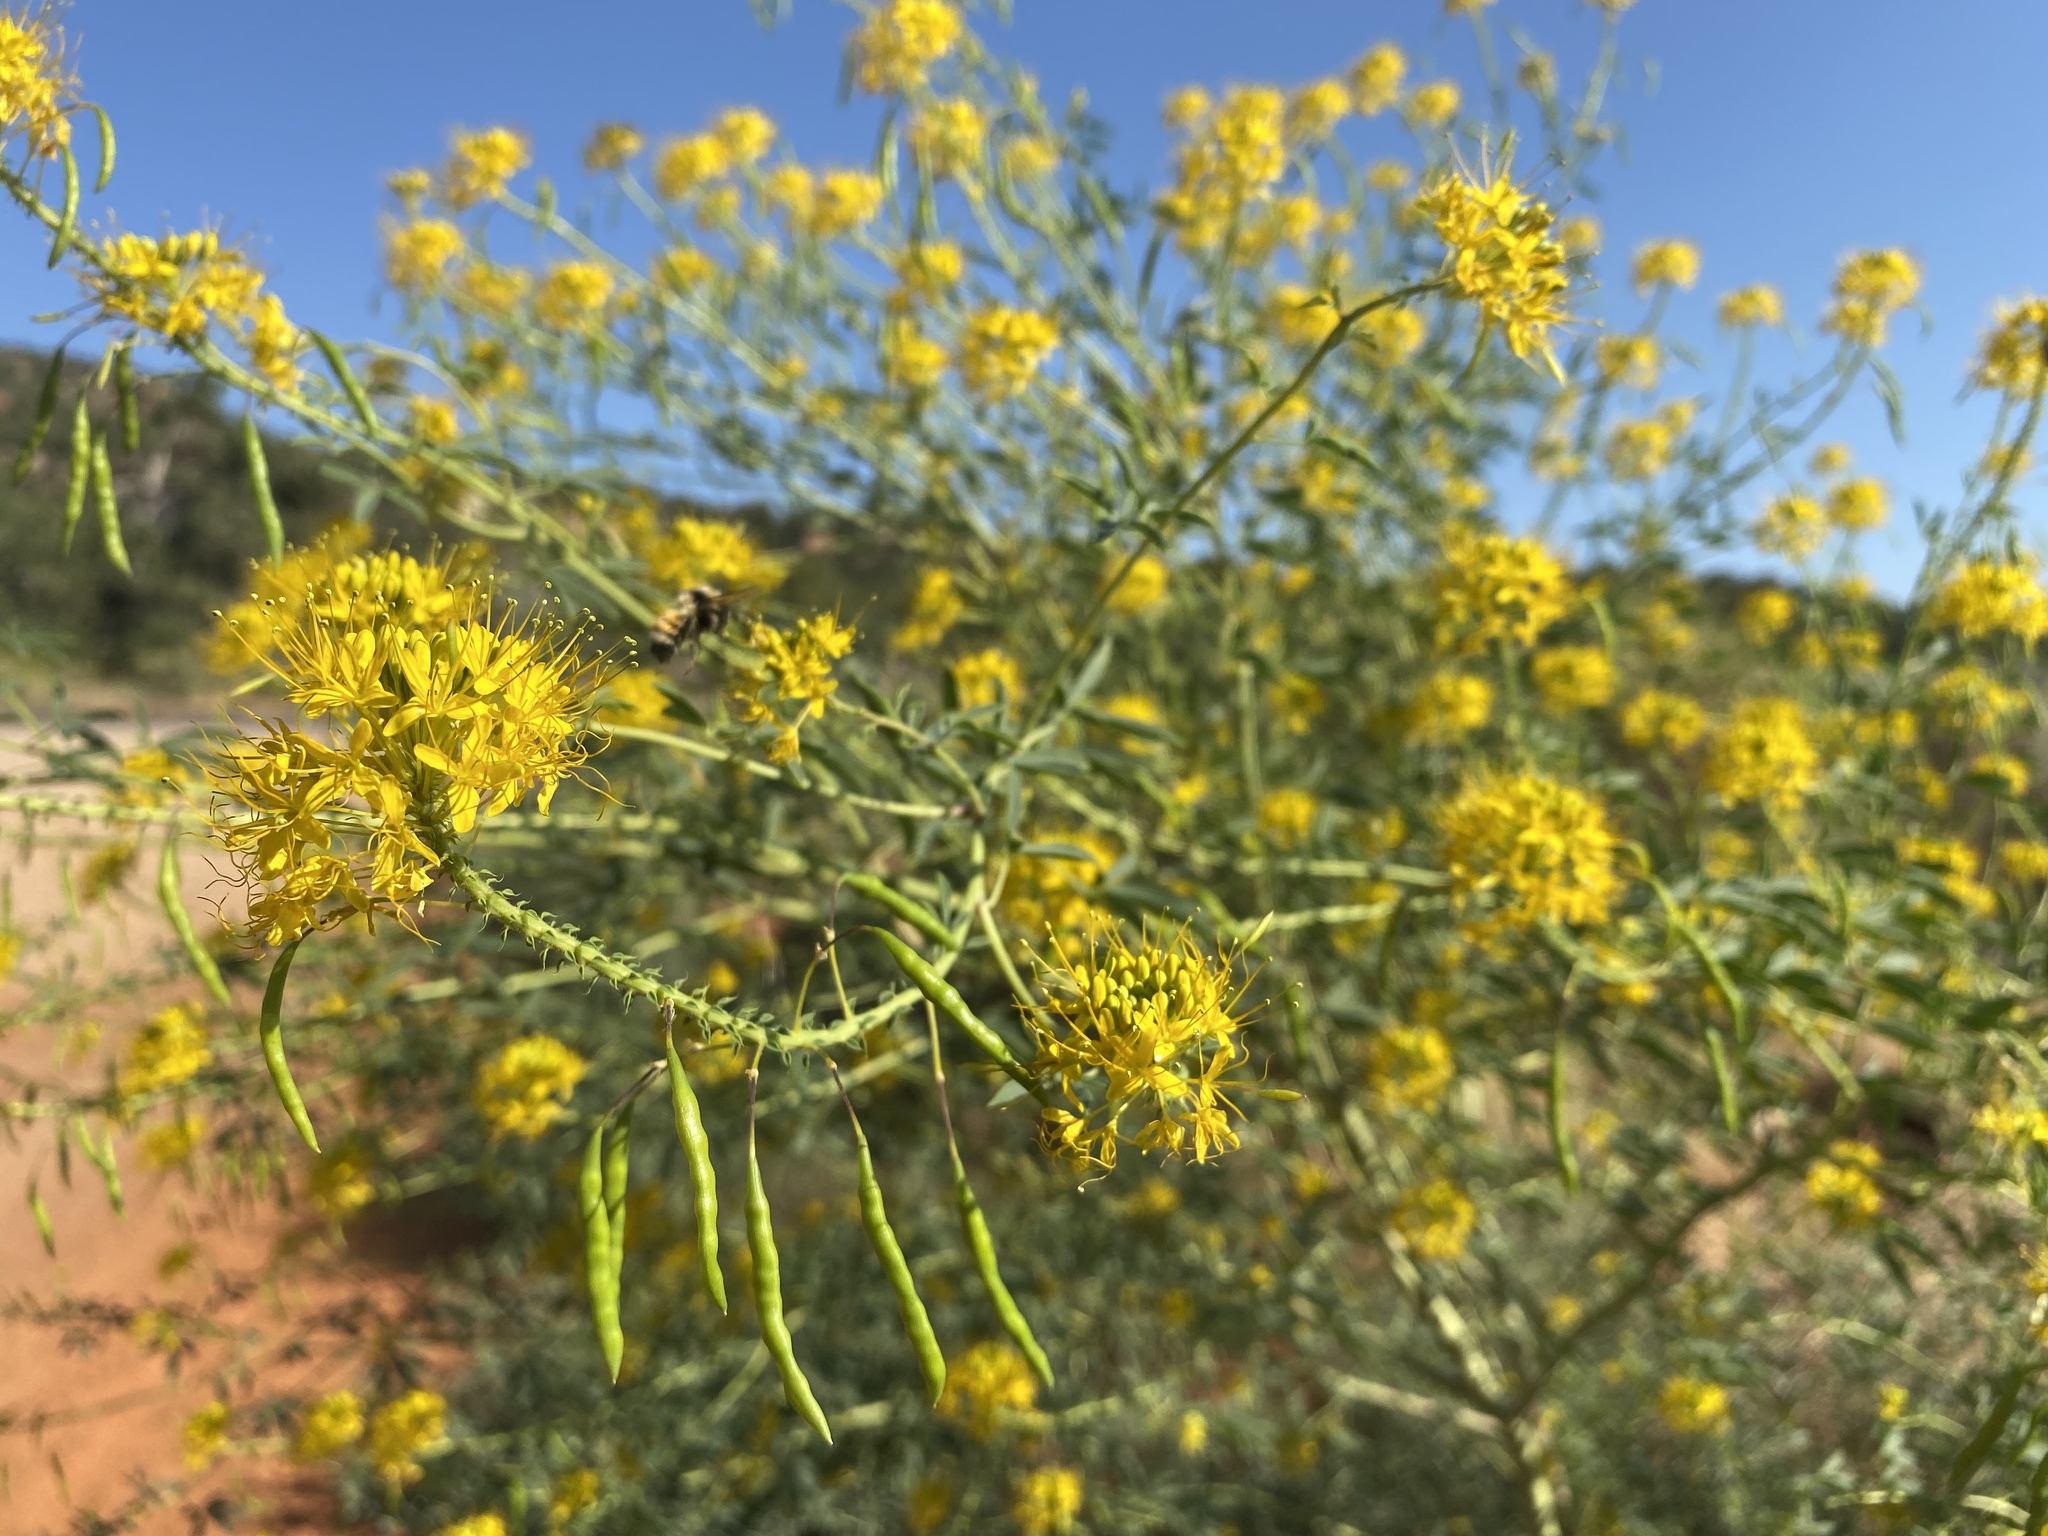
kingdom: Plantae
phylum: Tracheophyta
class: Magnoliopsida
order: Brassicales
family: Cleomaceae
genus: Cleomella
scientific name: Cleomella lutea
